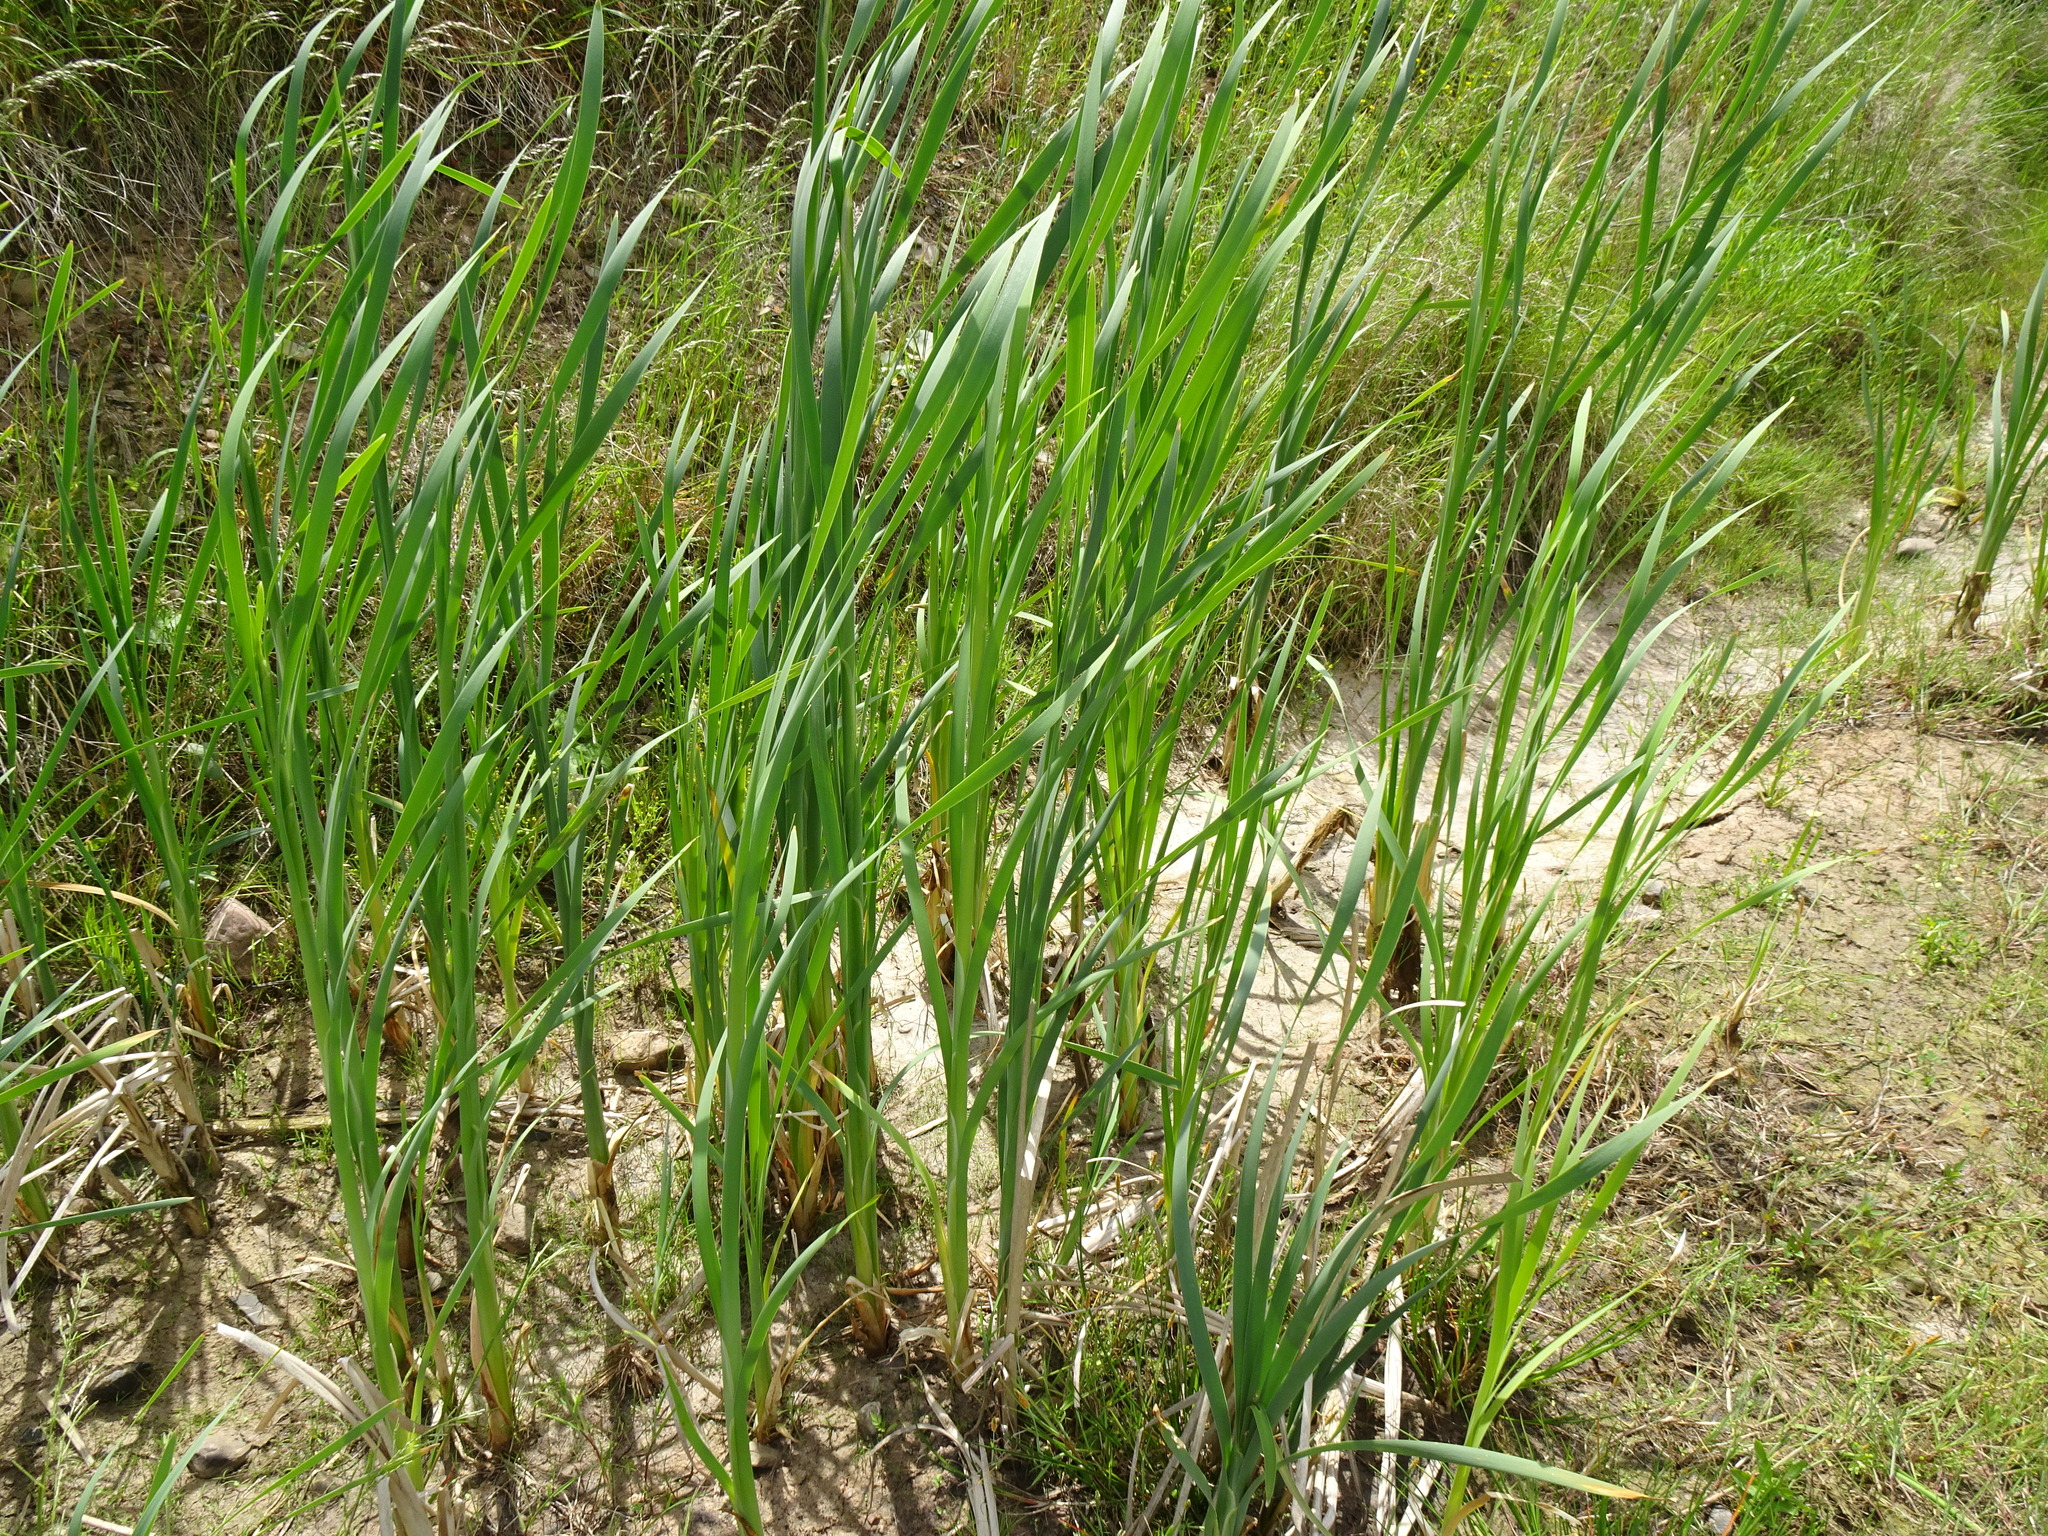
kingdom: Plantae
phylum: Tracheophyta
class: Liliopsida
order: Poales
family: Typhaceae
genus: Typha
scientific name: Typha latifolia
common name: Broadleaf cattail
